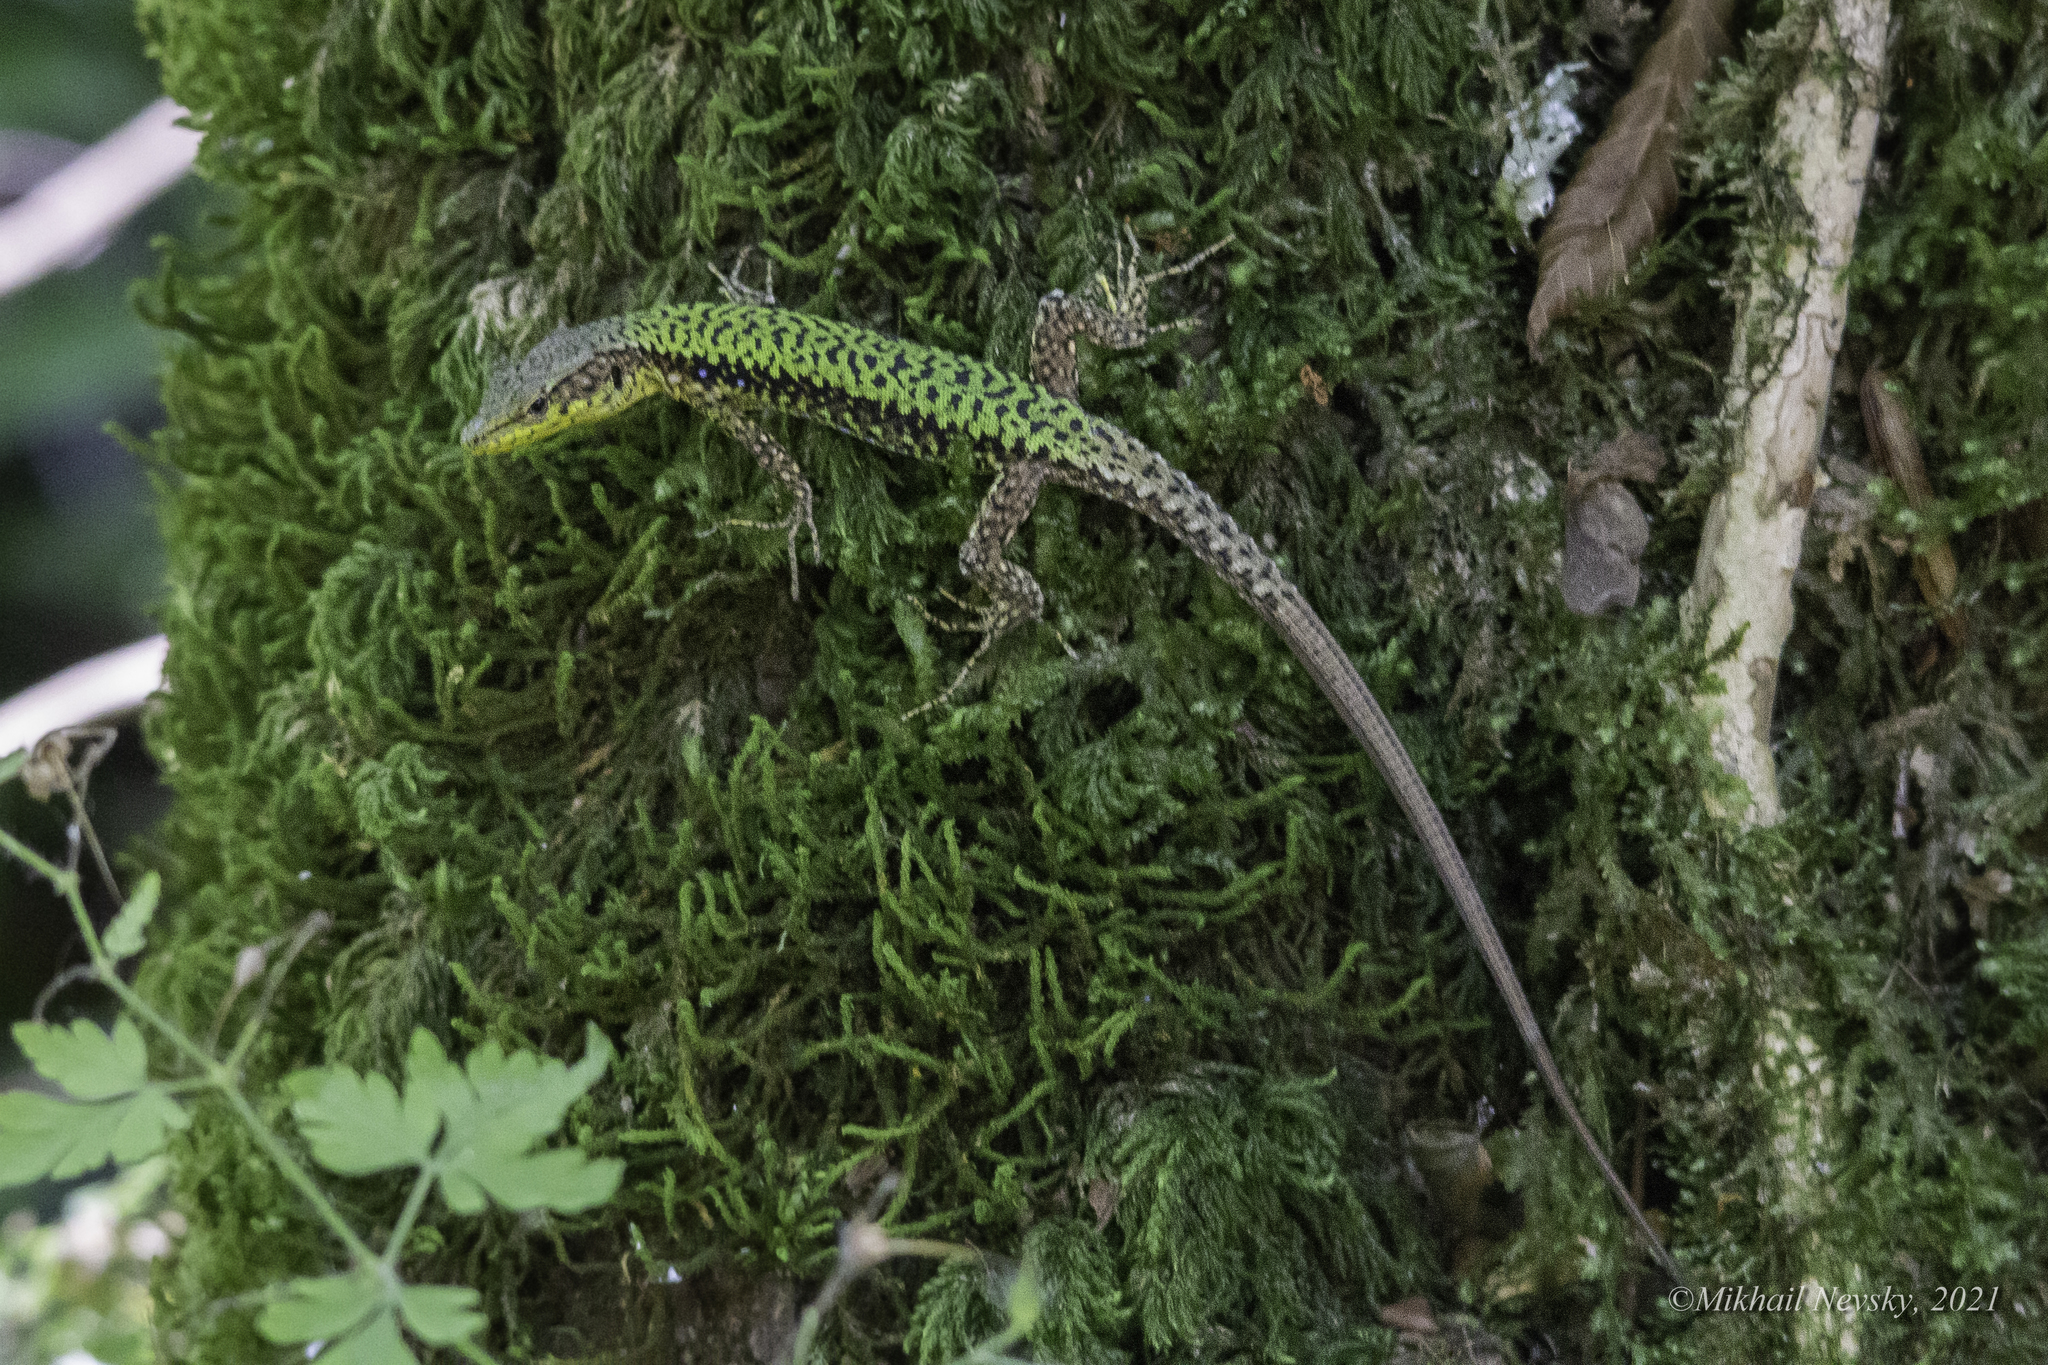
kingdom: Animalia
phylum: Chordata
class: Squamata
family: Lacertidae
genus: Darevskia
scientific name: Darevskia brauneri
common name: Brauner's rock lizard
